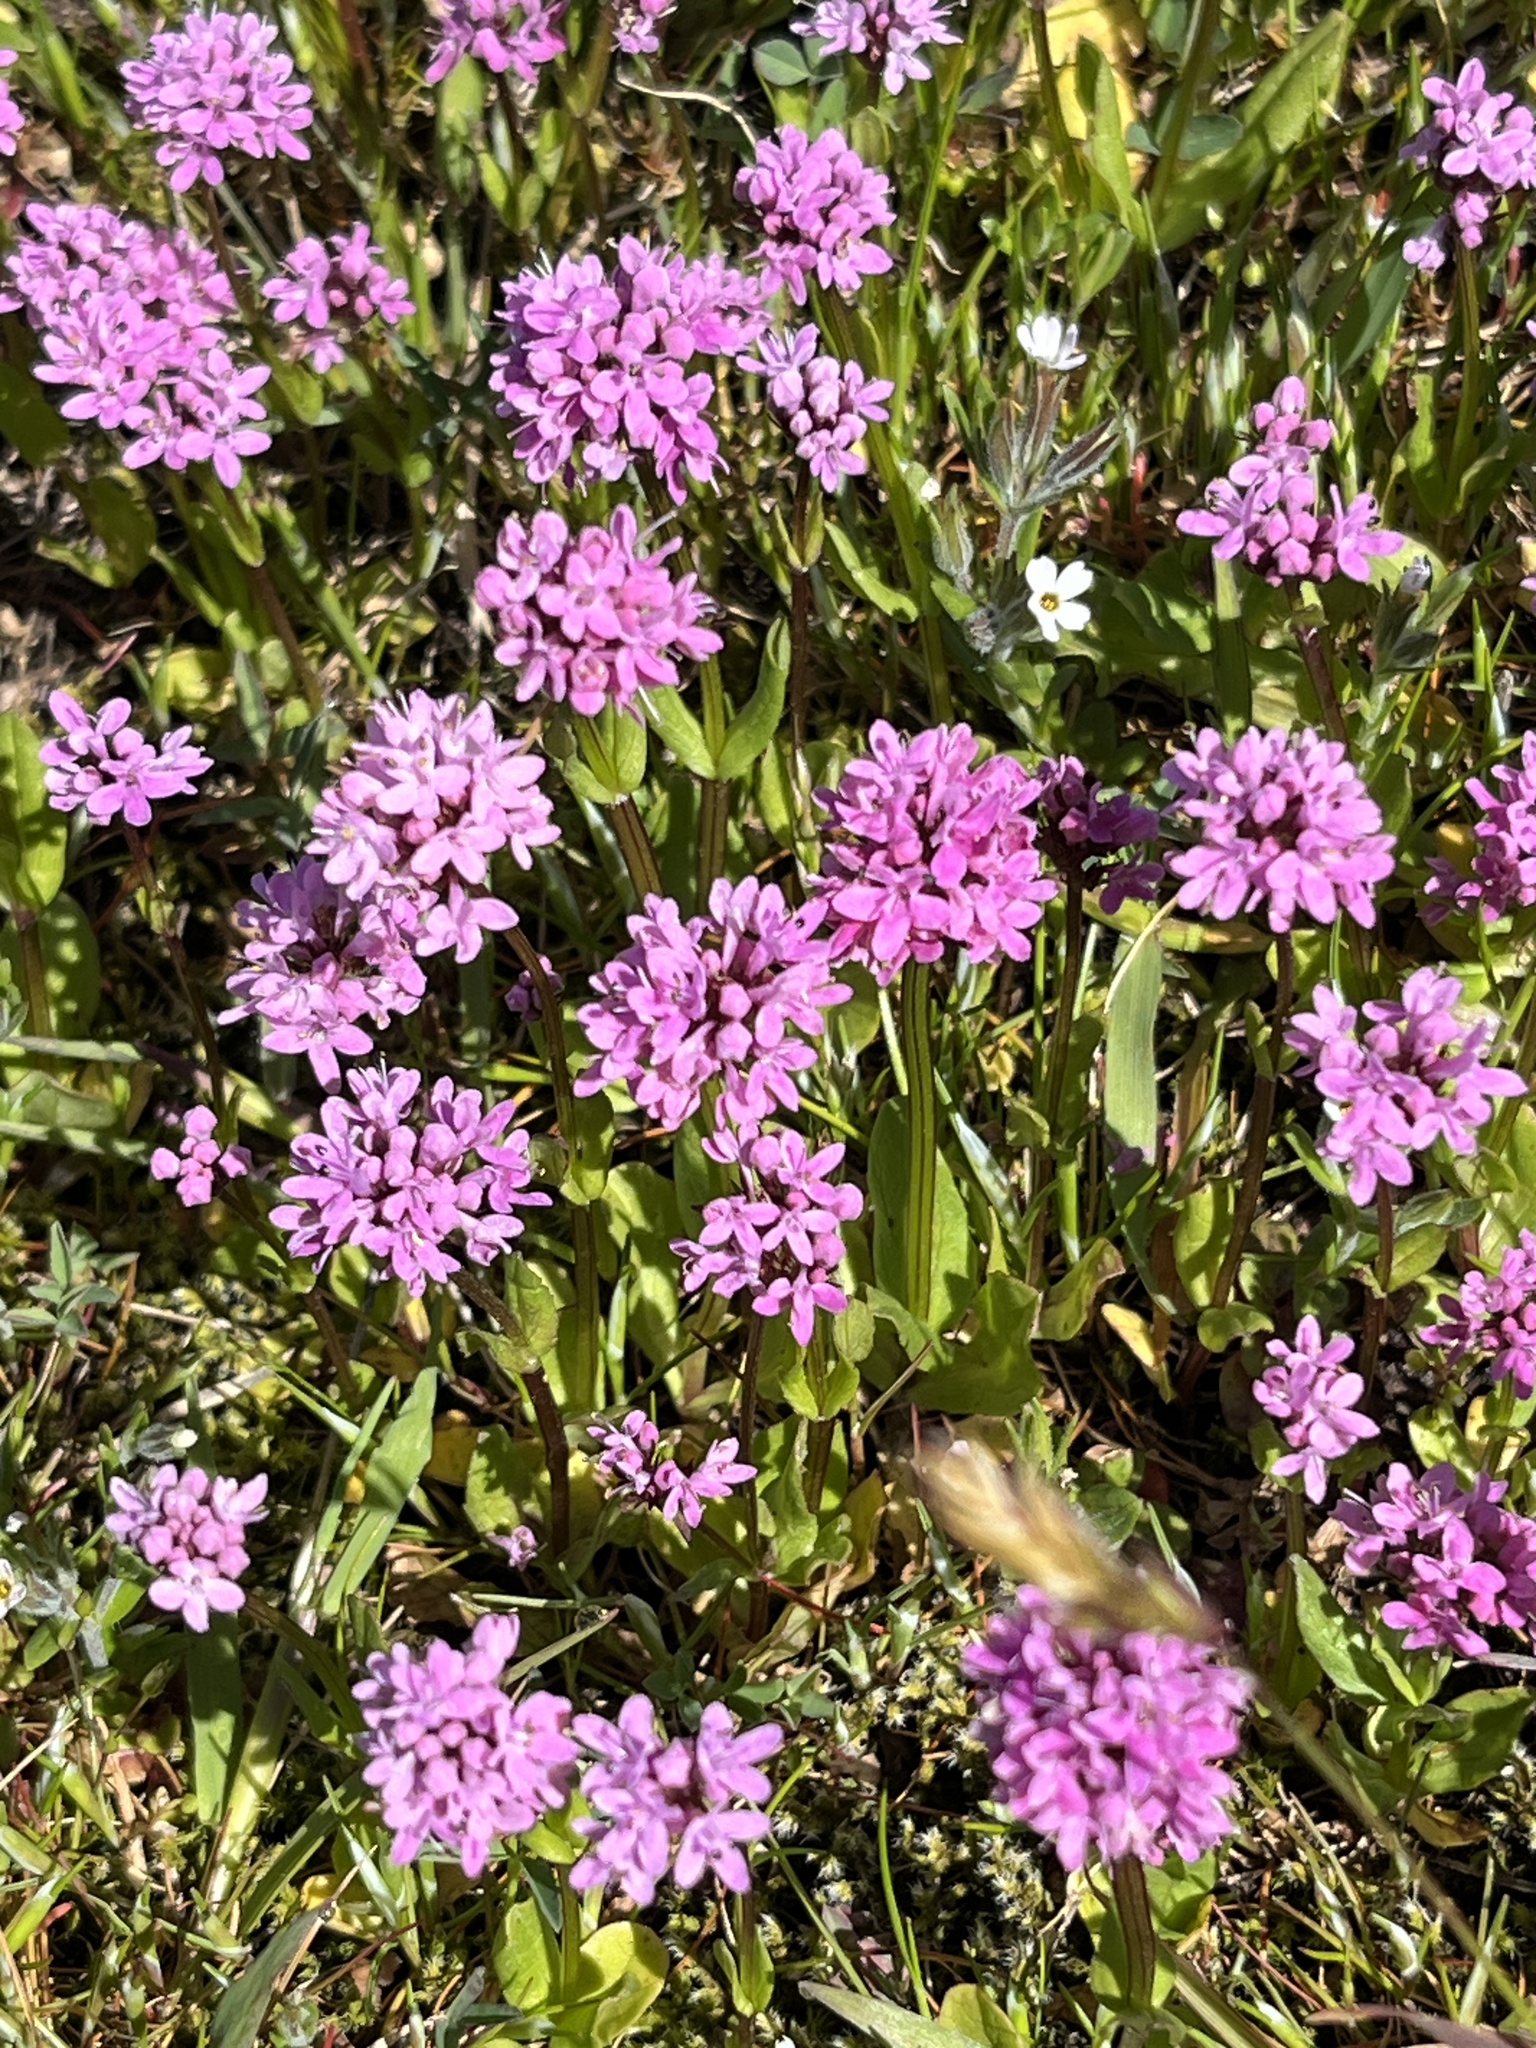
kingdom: Plantae
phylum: Tracheophyta
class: Magnoliopsida
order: Dipsacales
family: Caprifoliaceae
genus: Plectritis
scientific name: Plectritis congesta
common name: Pink plectritis
